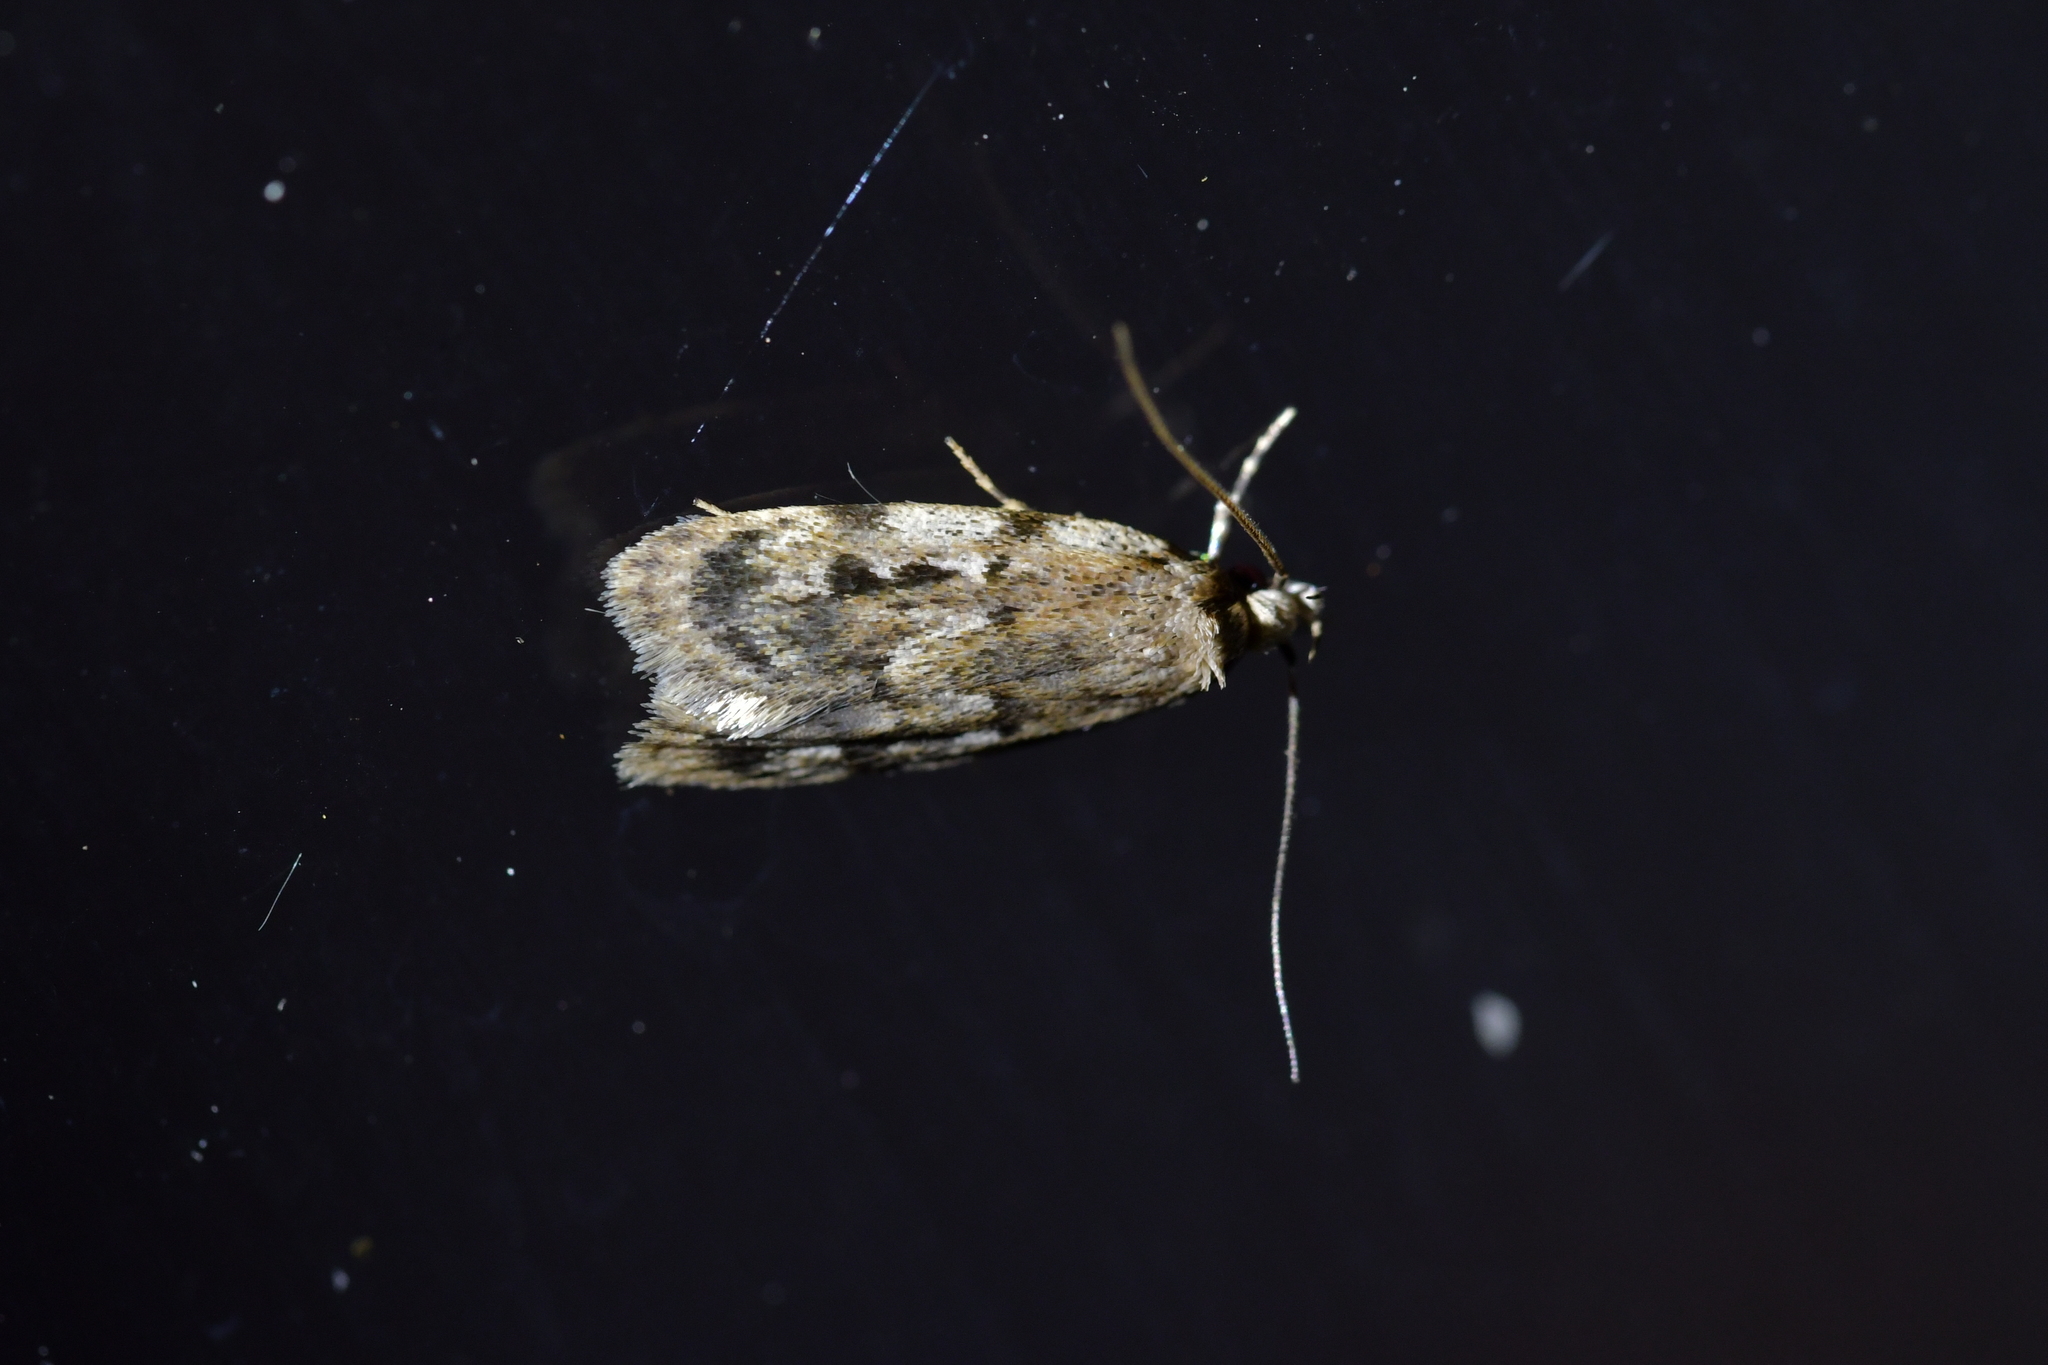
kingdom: Animalia
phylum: Arthropoda
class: Insecta
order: Lepidoptera
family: Oecophoridae
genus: Barea
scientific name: Barea exarcha
